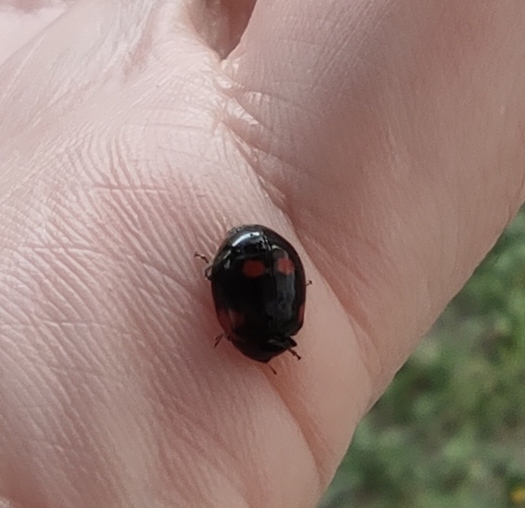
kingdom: Animalia
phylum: Arthropoda
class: Insecta
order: Coleoptera
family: Coccinellidae
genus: Adalia
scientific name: Adalia bipunctata
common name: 2-spot ladybird
